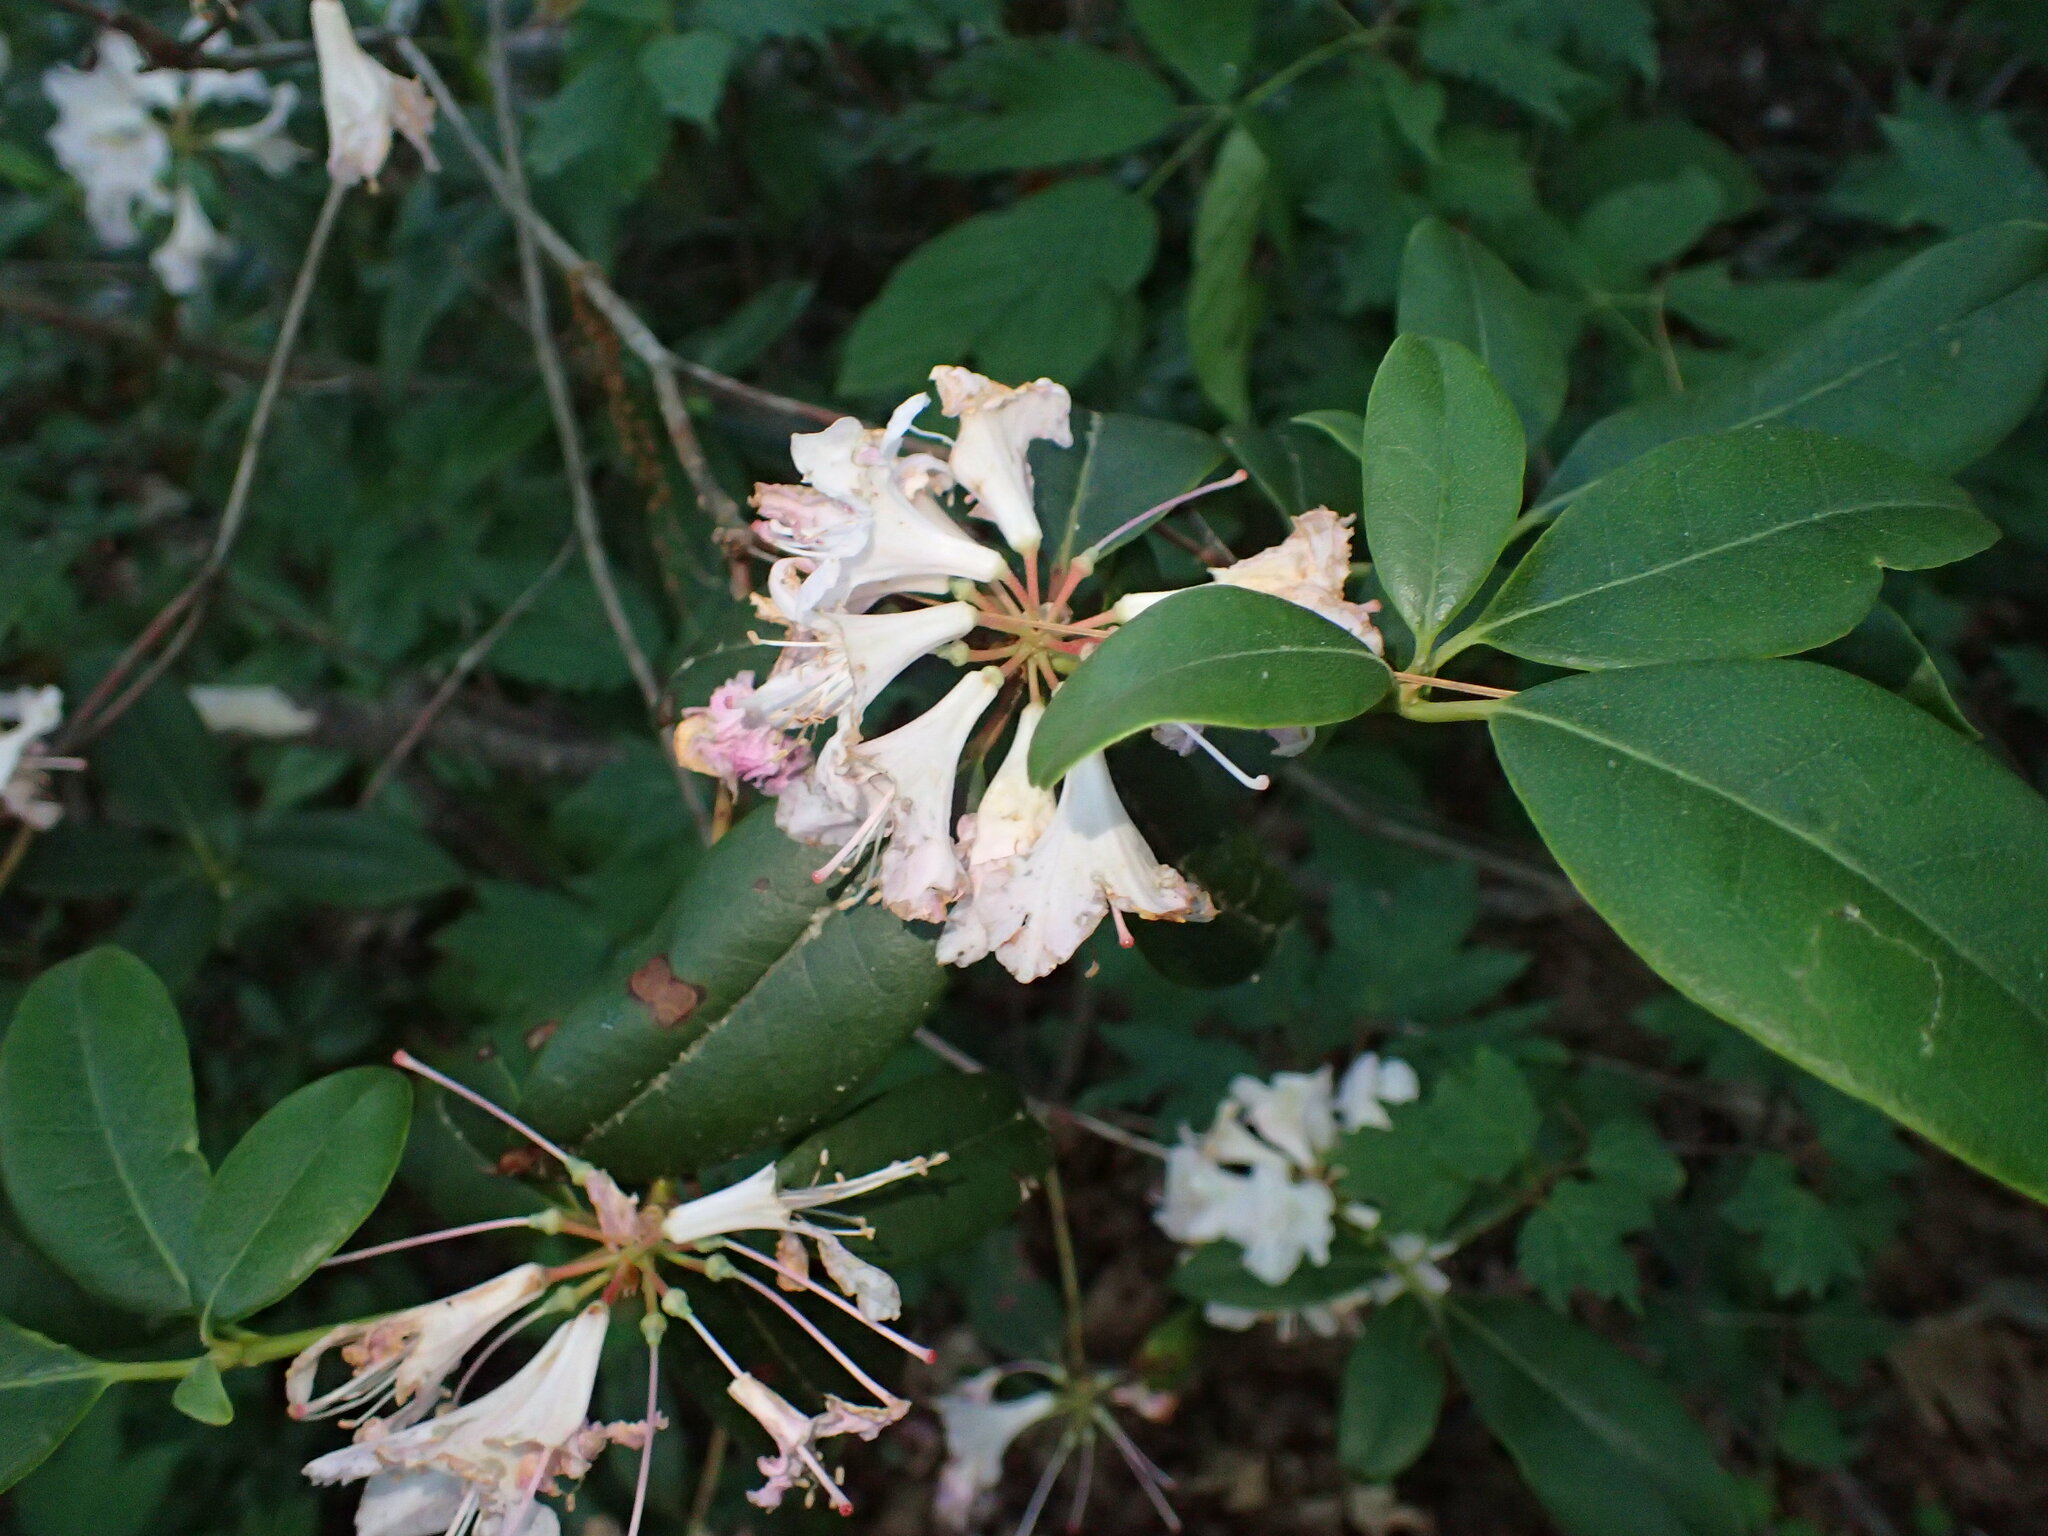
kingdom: Plantae
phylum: Tracheophyta
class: Magnoliopsida
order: Ericales
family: Ericaceae
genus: Rhododendron
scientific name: Rhododendron minus
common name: Piedmont rhododendron
